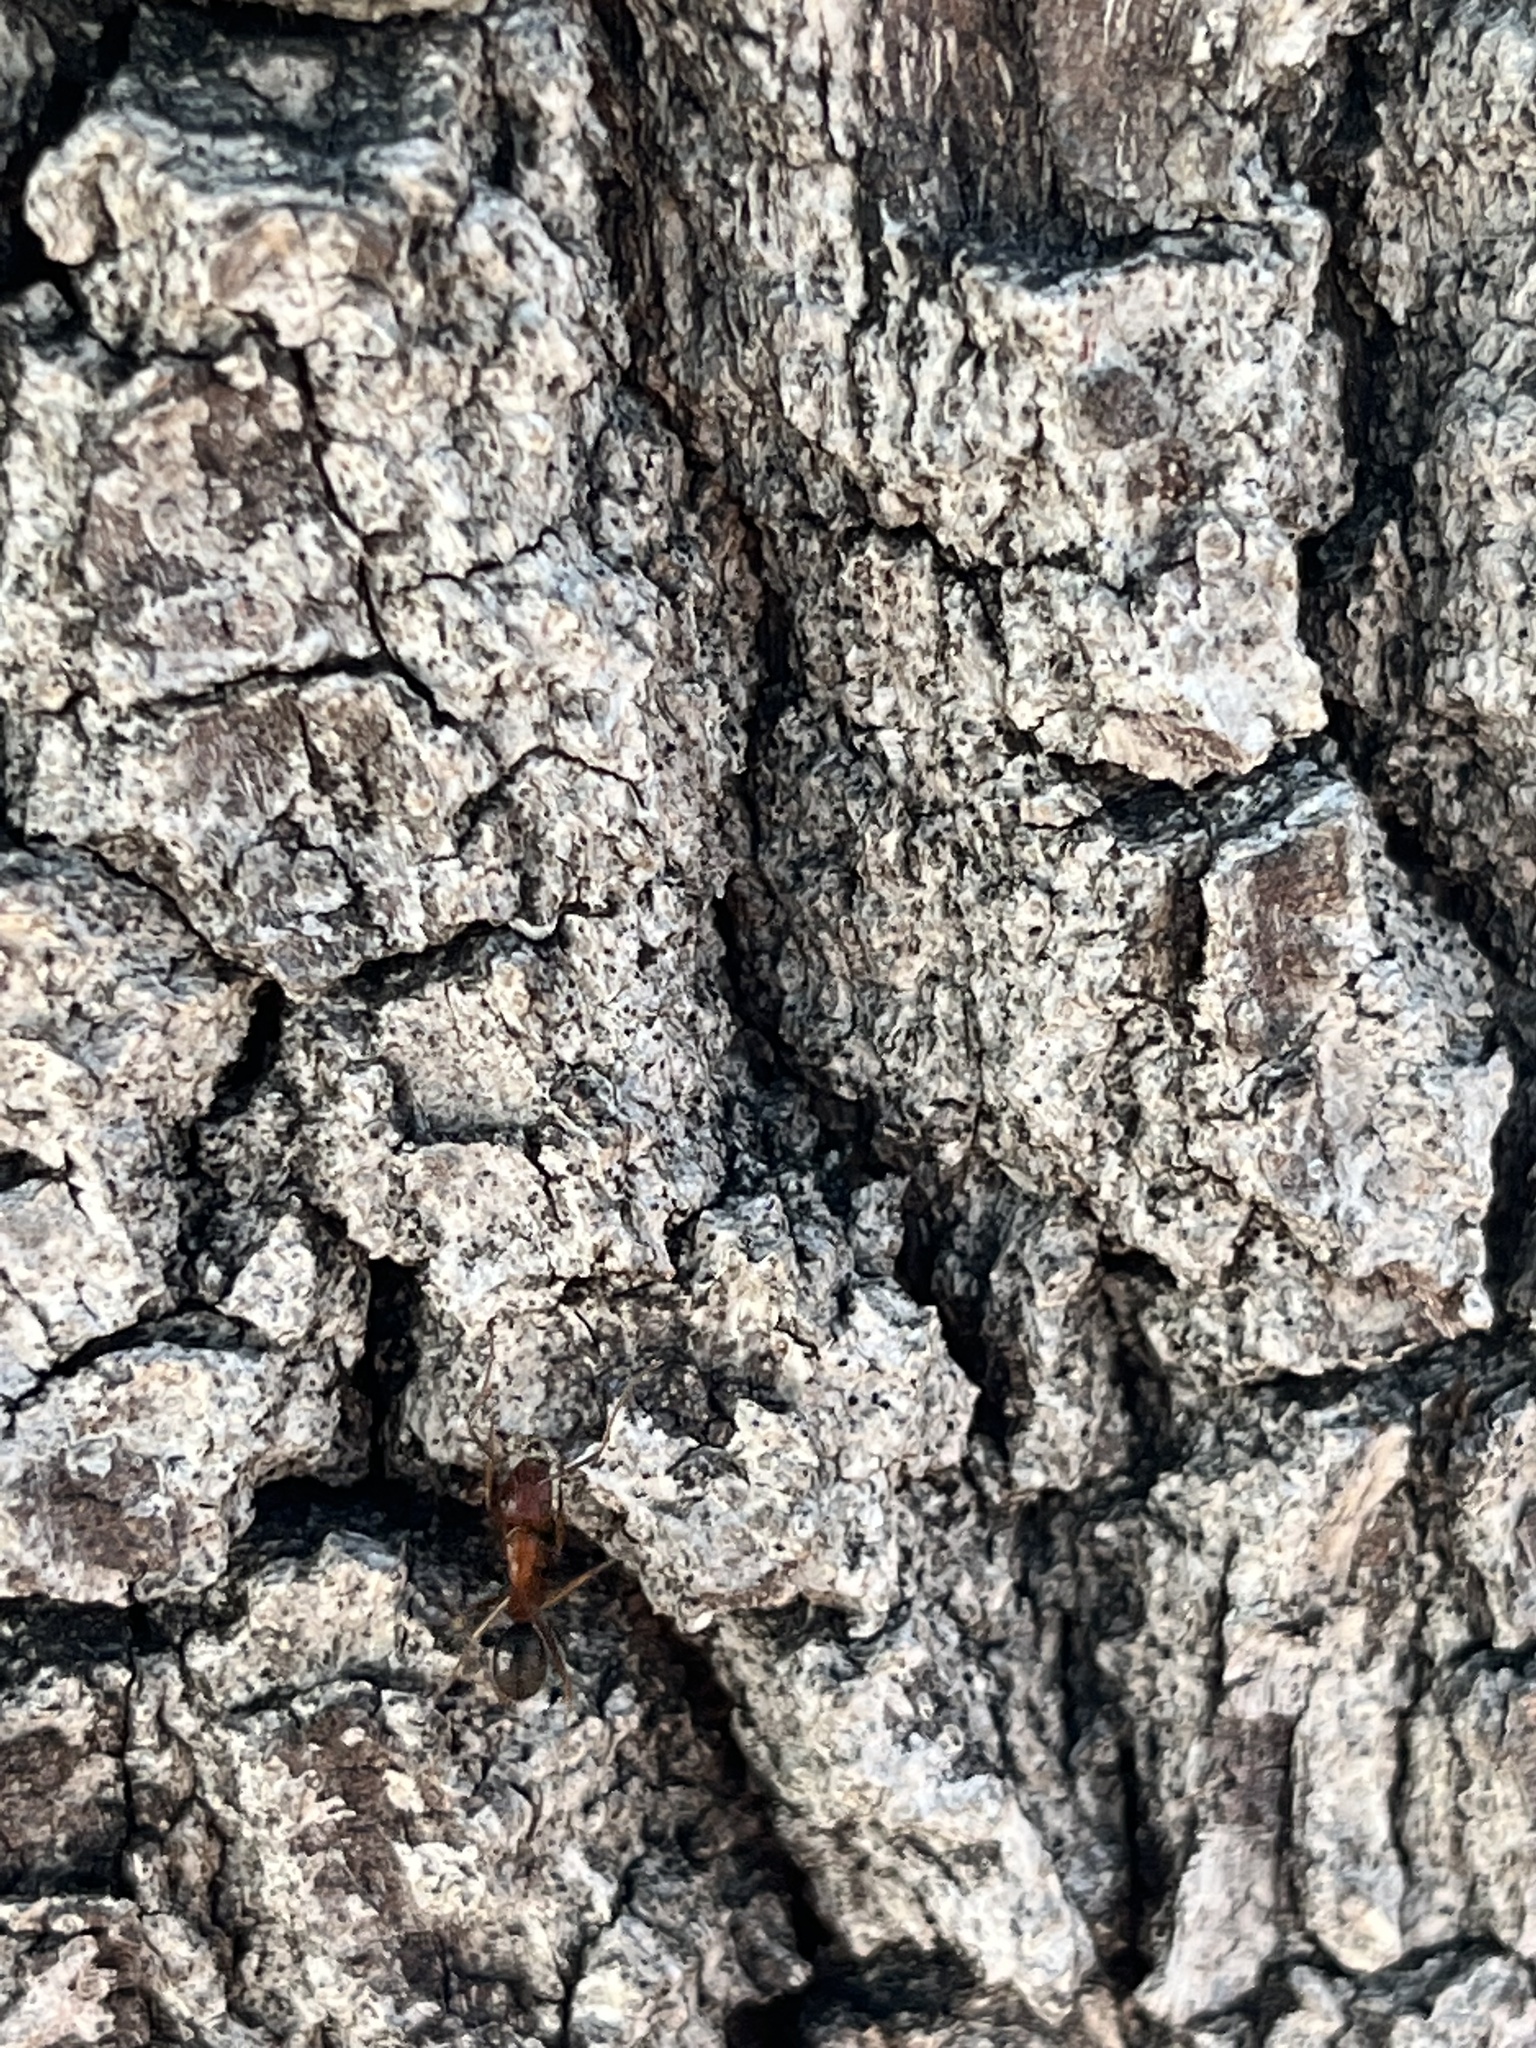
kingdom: Animalia
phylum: Arthropoda
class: Insecta
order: Hymenoptera
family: Formicidae
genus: Camponotus
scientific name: Camponotus floridanus
